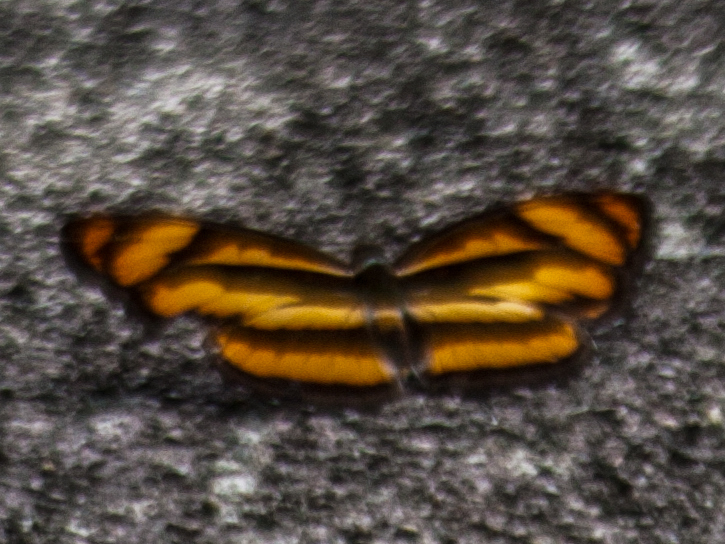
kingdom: Animalia
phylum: Arthropoda
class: Insecta
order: Lepidoptera
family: Nymphalidae
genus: Parathyma
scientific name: Parathyma nefte
